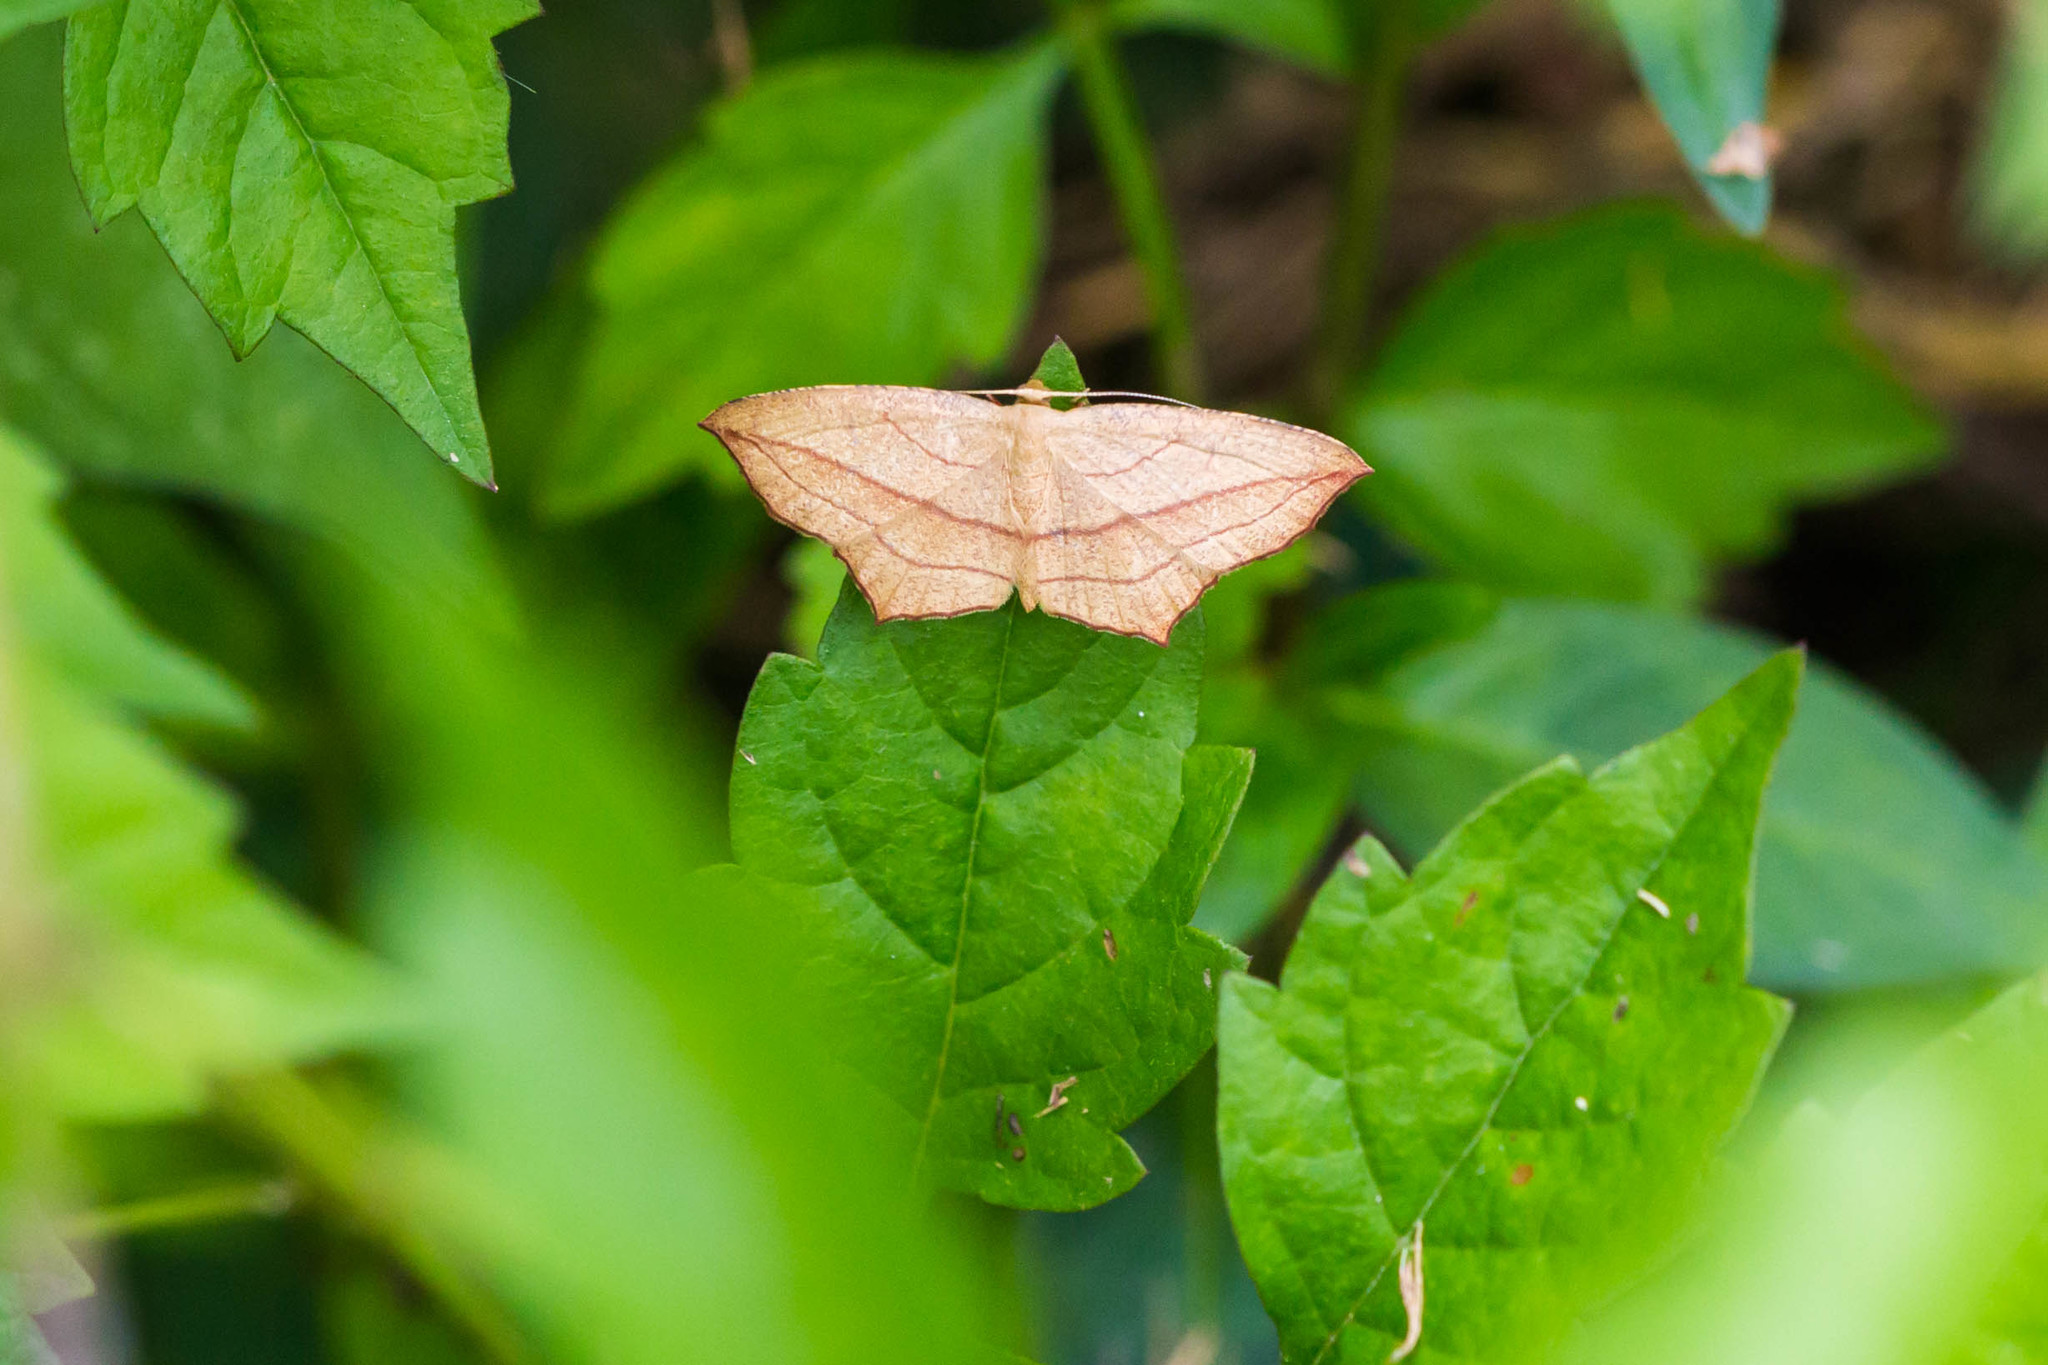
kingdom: Animalia
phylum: Arthropoda
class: Insecta
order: Lepidoptera
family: Geometridae
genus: Timandra
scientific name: Timandra amaturaria
